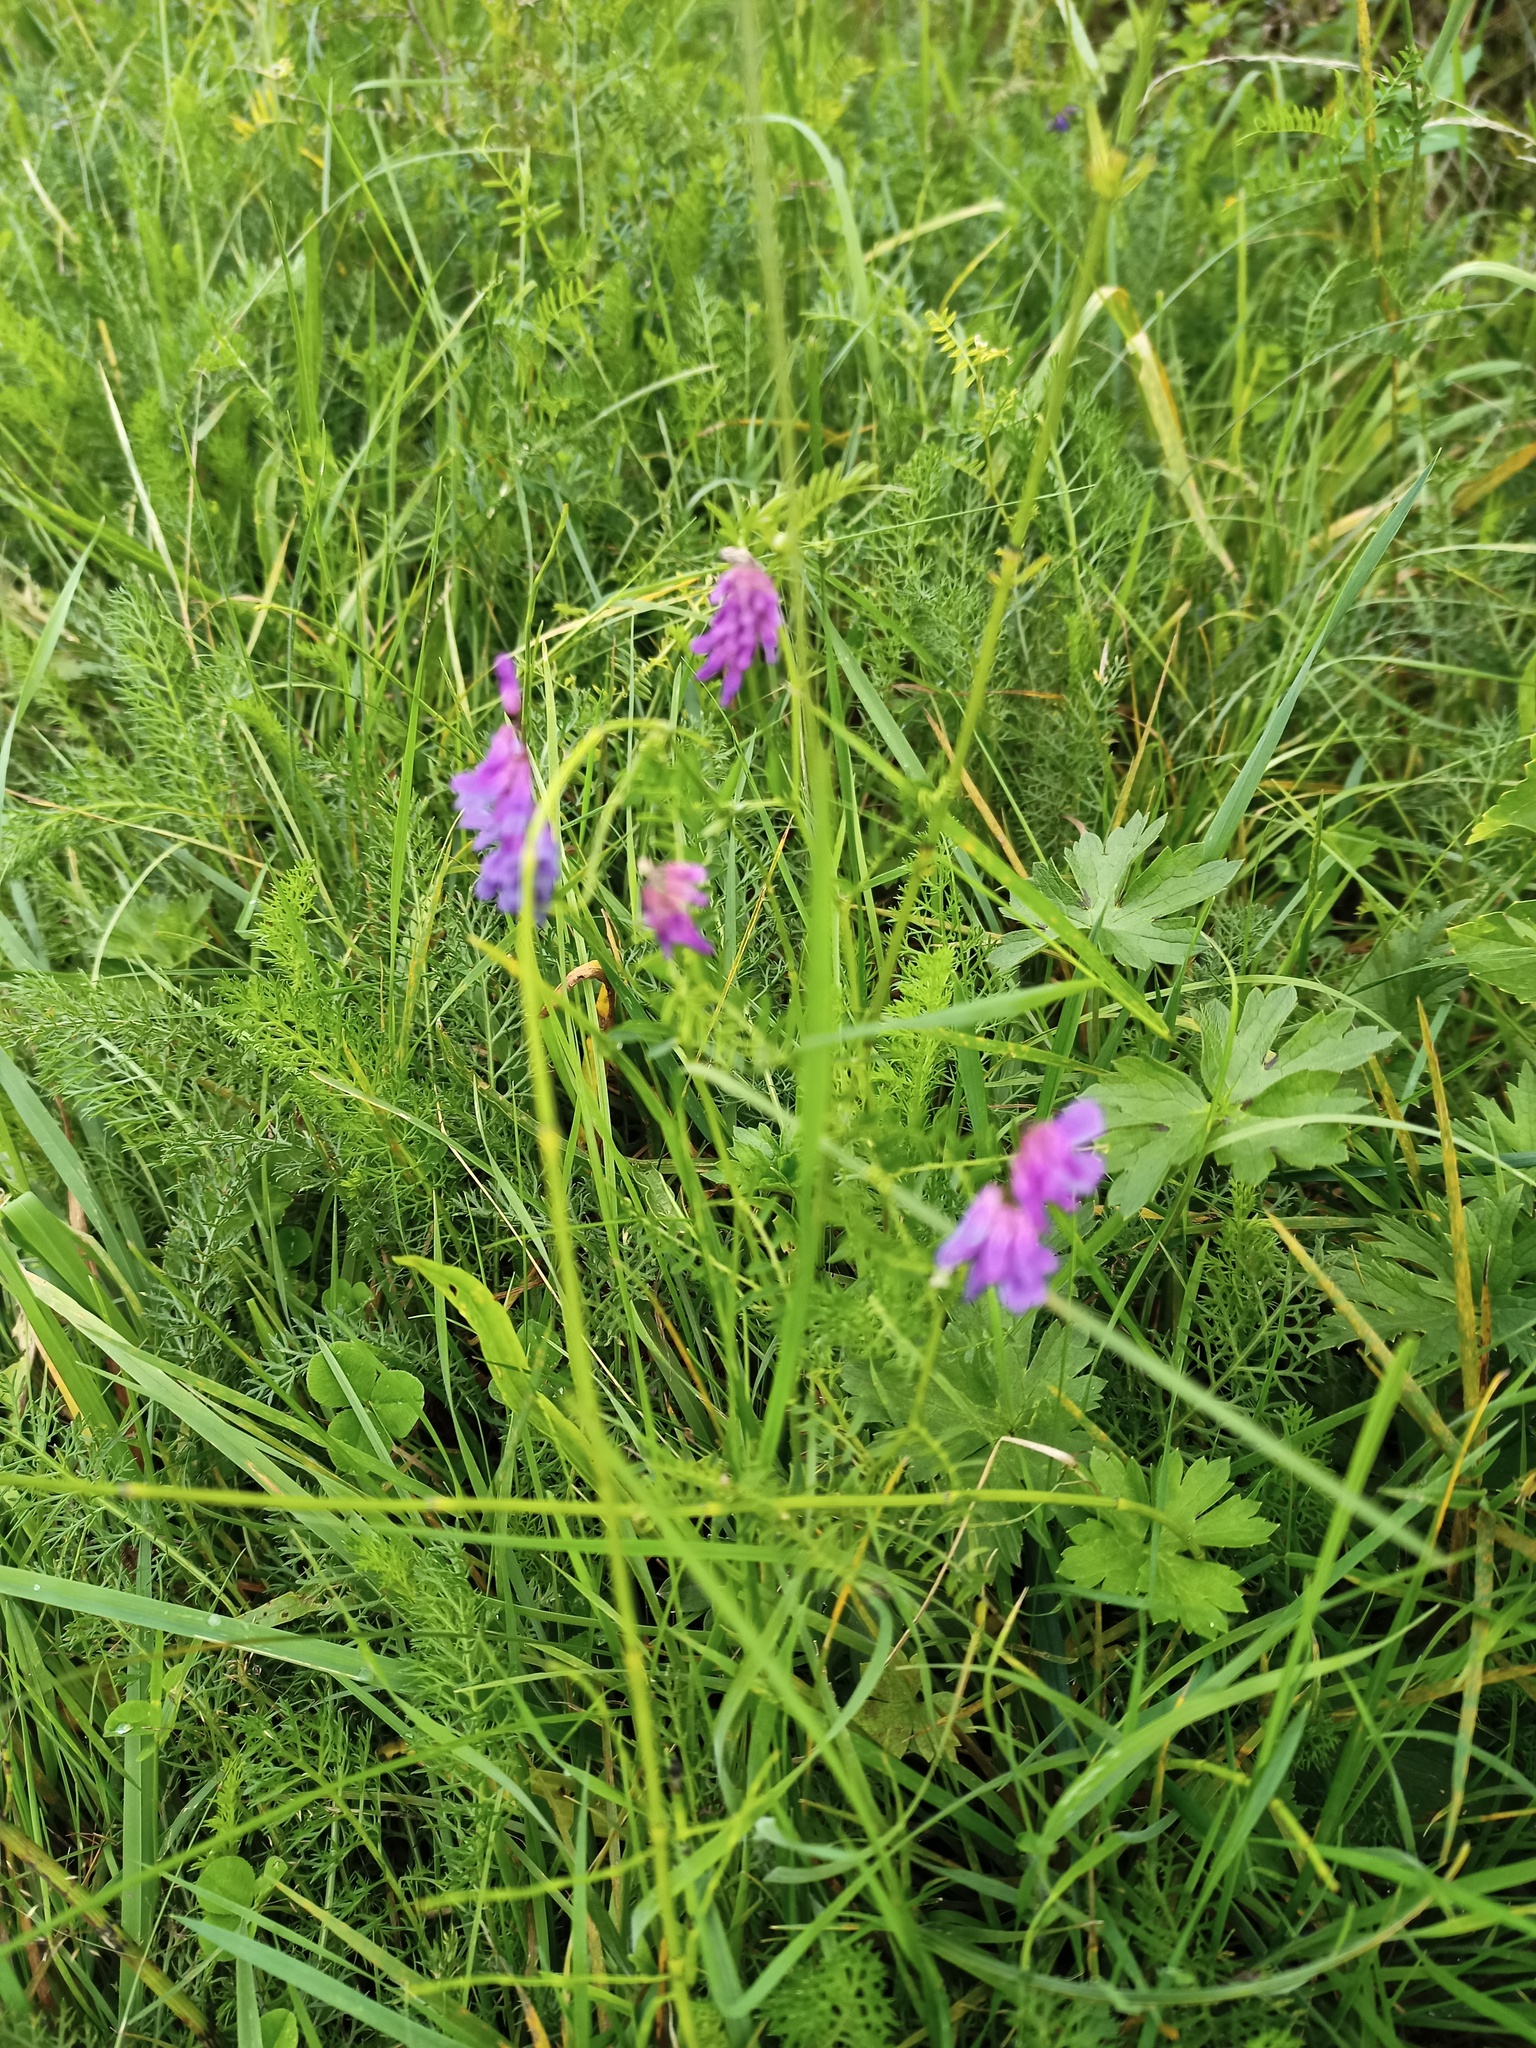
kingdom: Plantae
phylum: Tracheophyta
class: Magnoliopsida
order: Fabales
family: Fabaceae
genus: Vicia
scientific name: Vicia cracca
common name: Bird vetch
